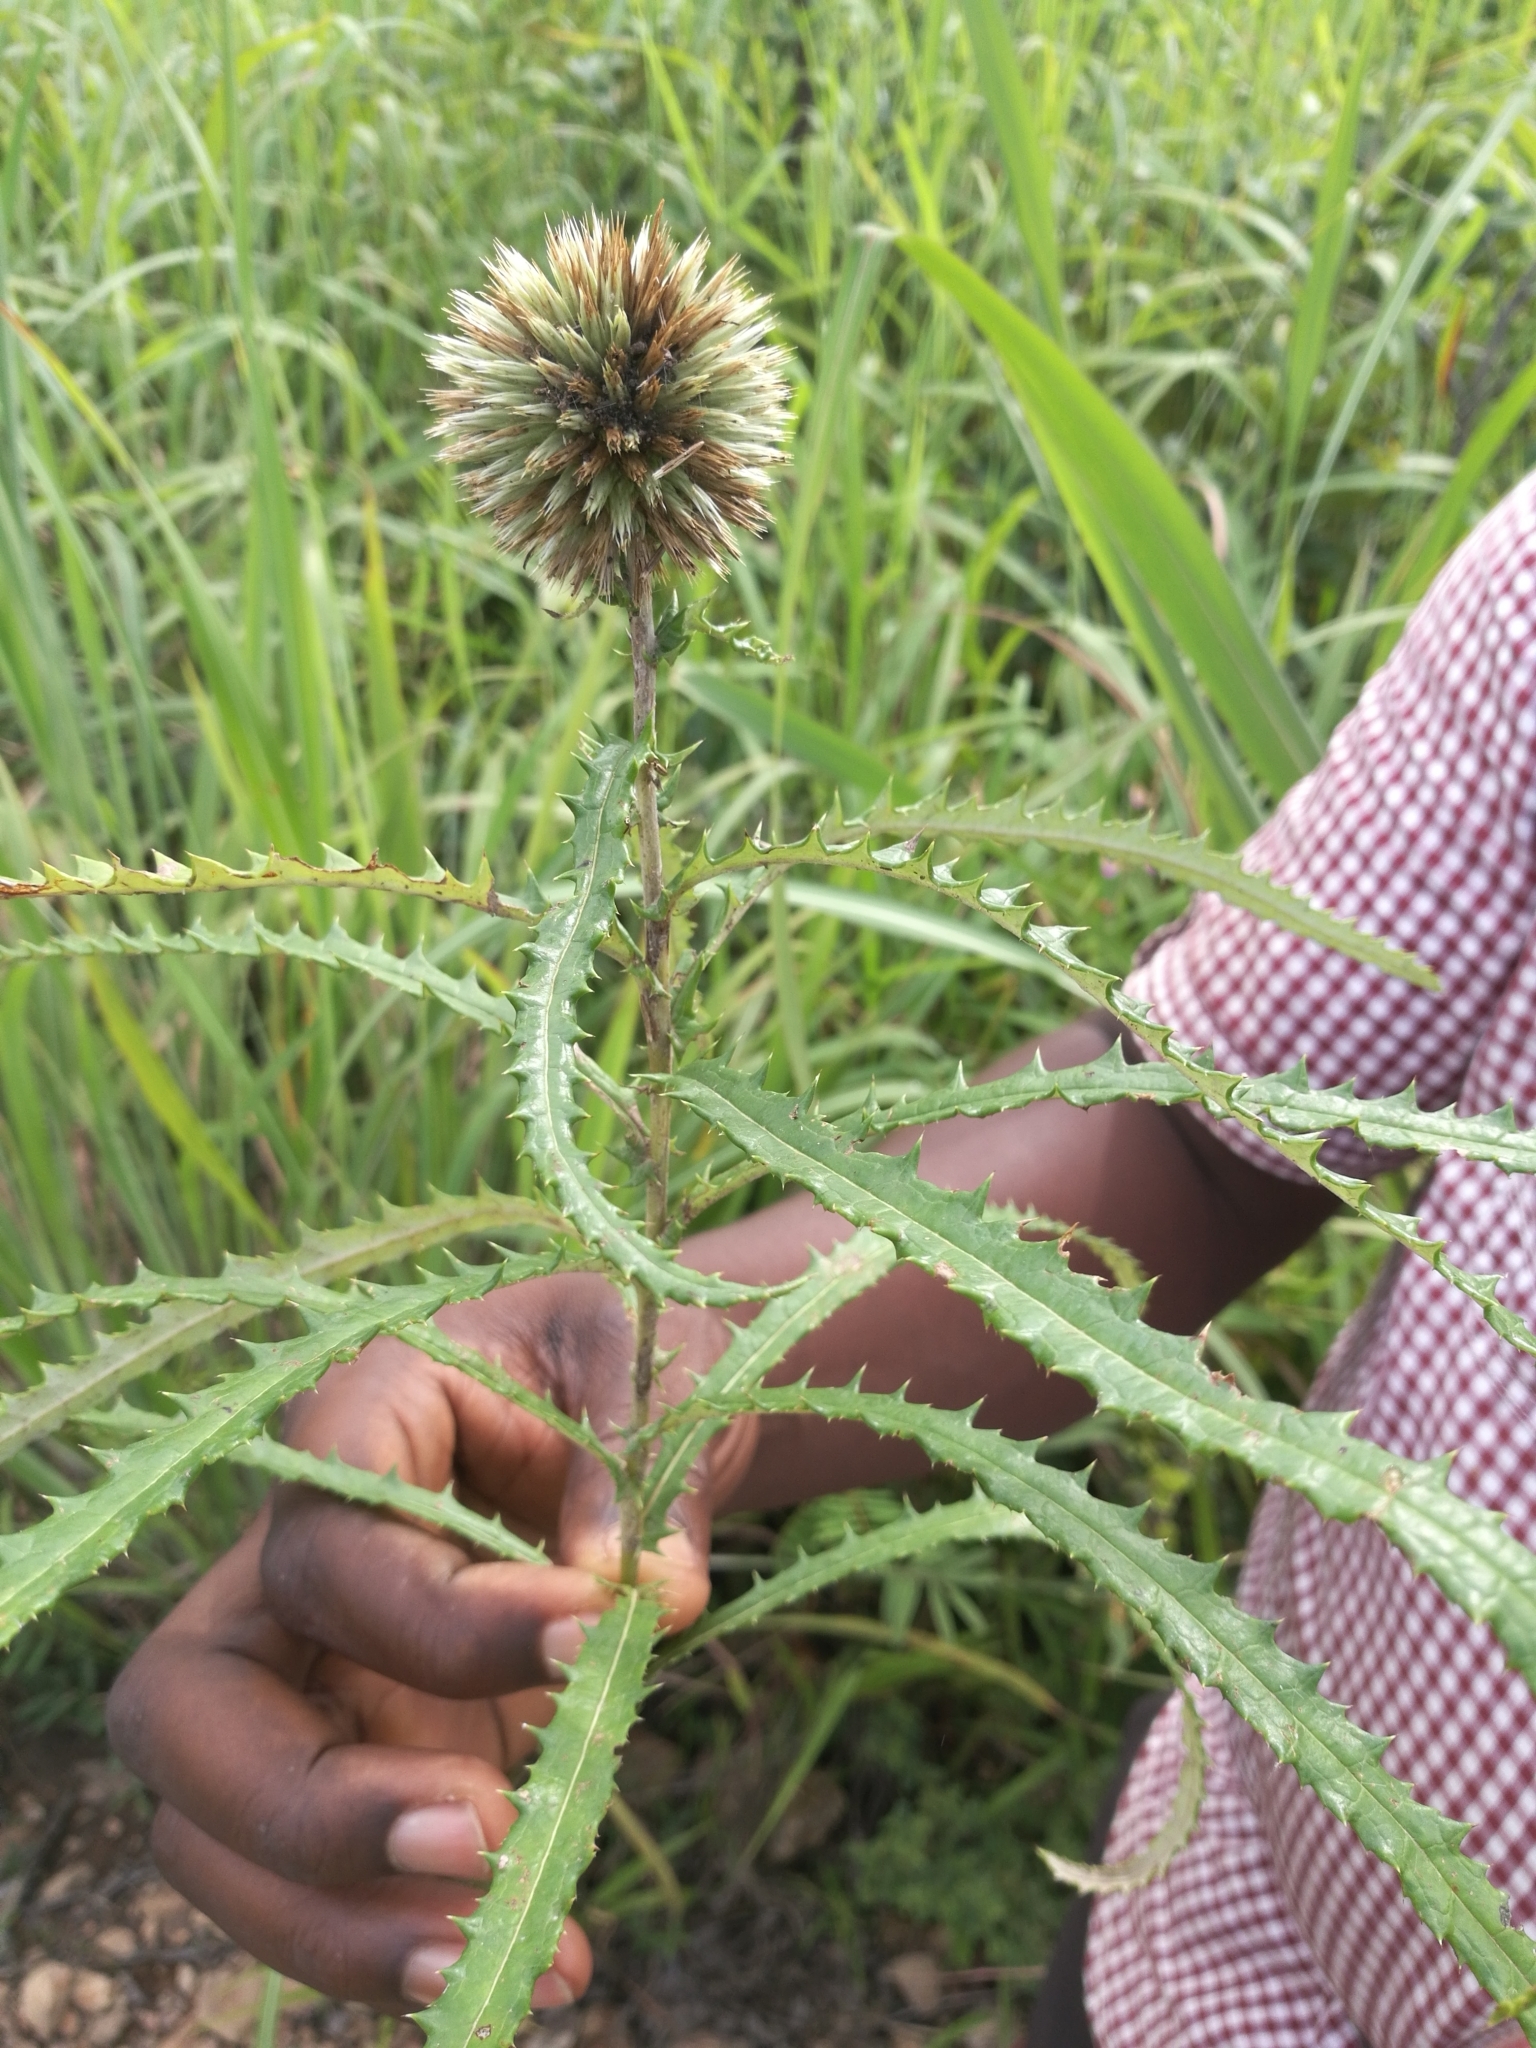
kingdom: Plantae
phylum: Tracheophyta
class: Magnoliopsida
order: Asterales
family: Asteraceae
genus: Echinops
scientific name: Echinops longifolius
